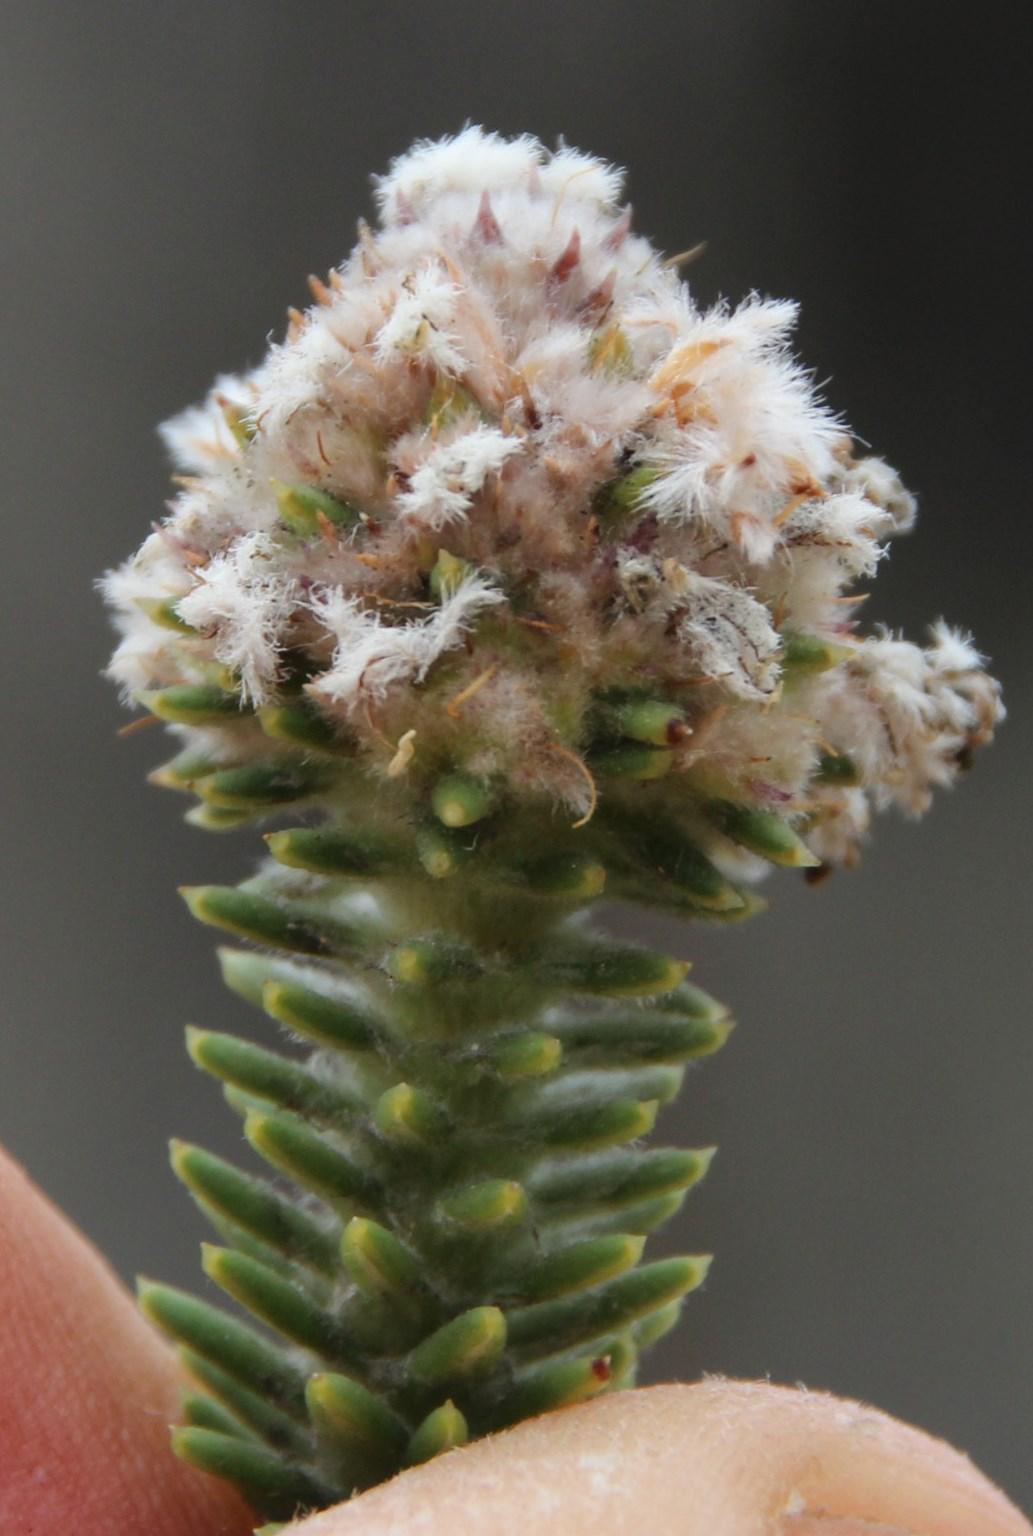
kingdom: Plantae
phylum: Tracheophyta
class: Magnoliopsida
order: Lamiales
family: Stilbaceae
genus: Kogelbergia
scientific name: Kogelbergia verticillata
